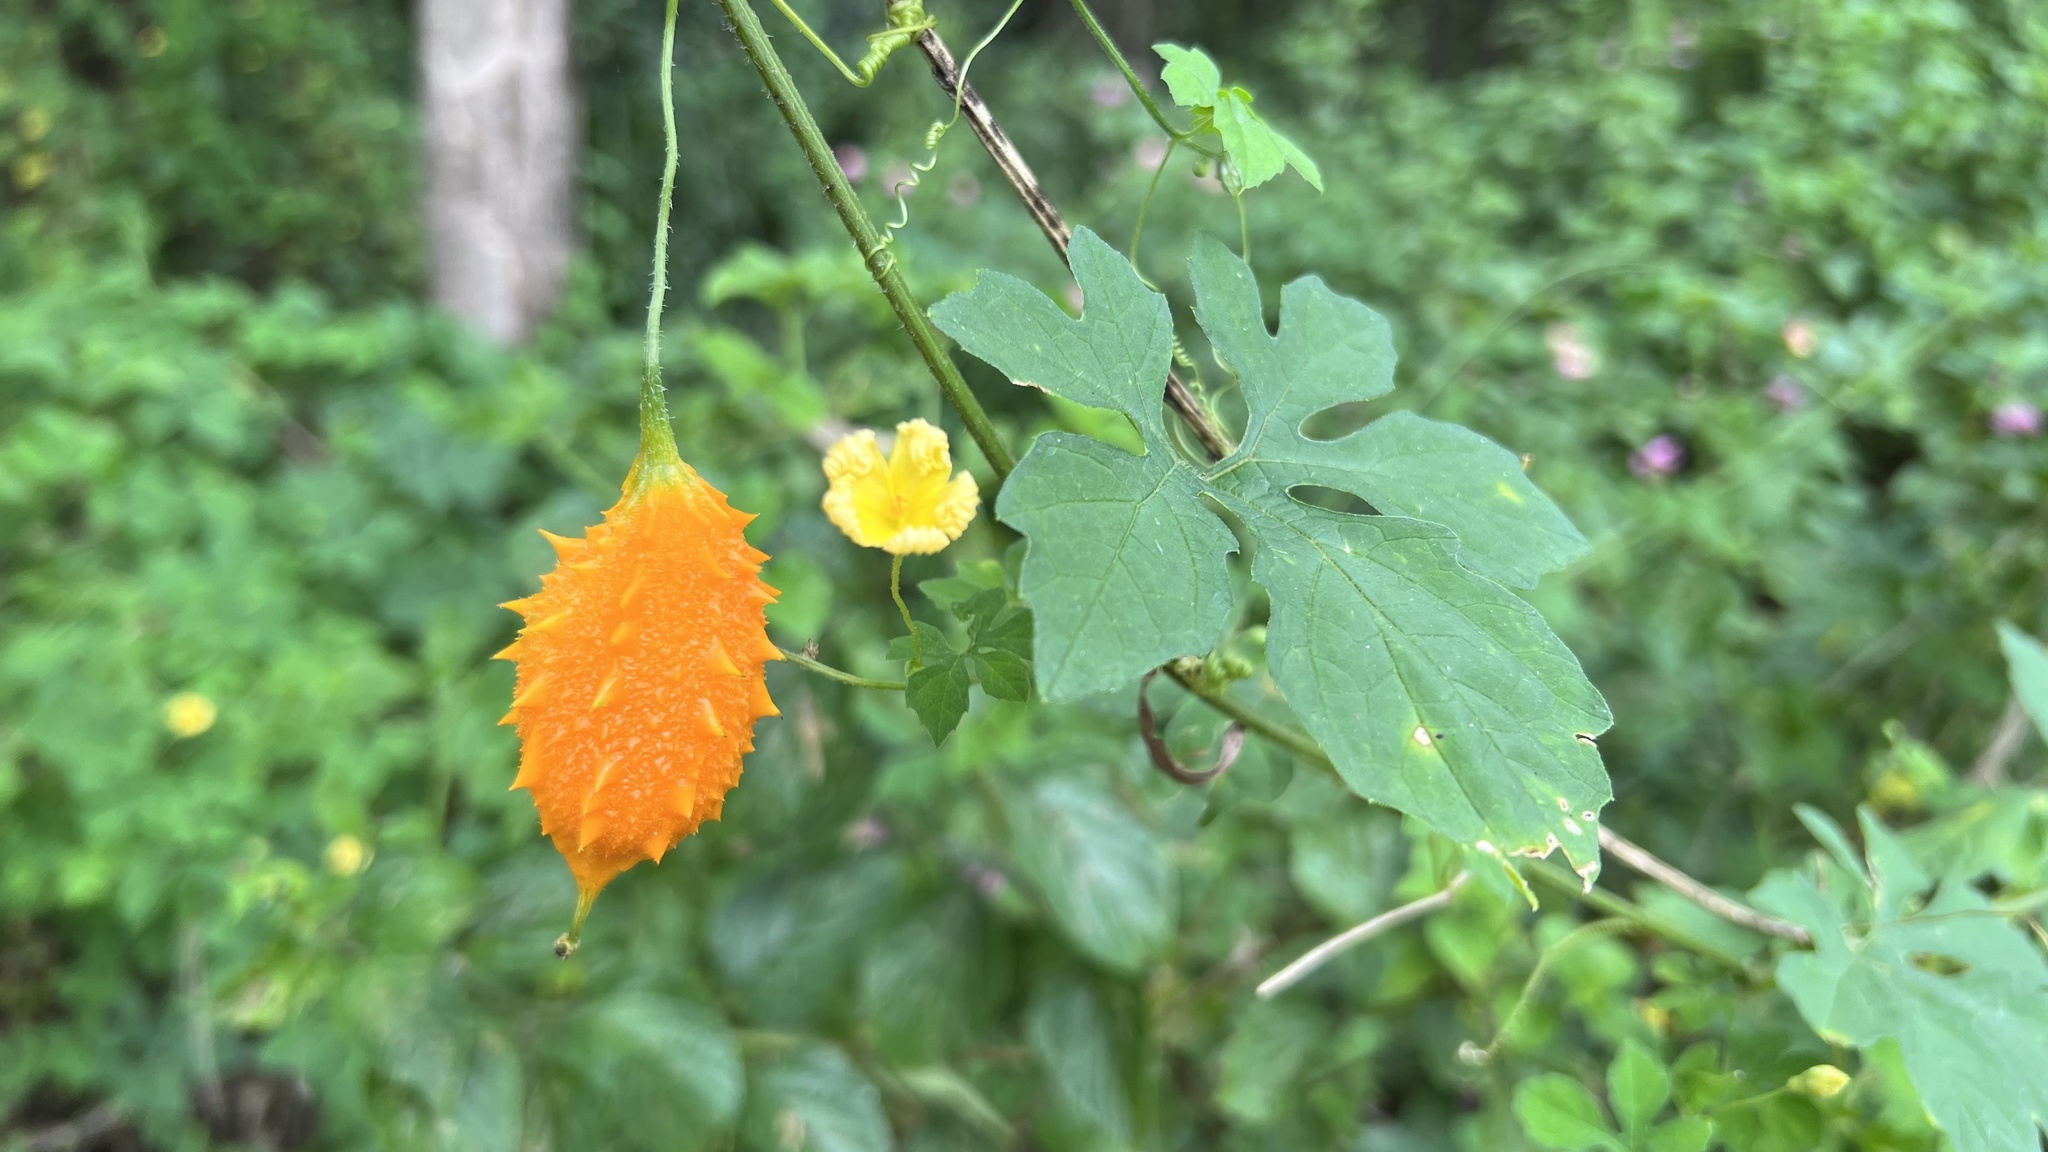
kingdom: Plantae
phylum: Tracheophyta
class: Magnoliopsida
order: Cucurbitales
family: Cucurbitaceae
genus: Momordica
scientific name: Momordica charantia
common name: Balsampear
